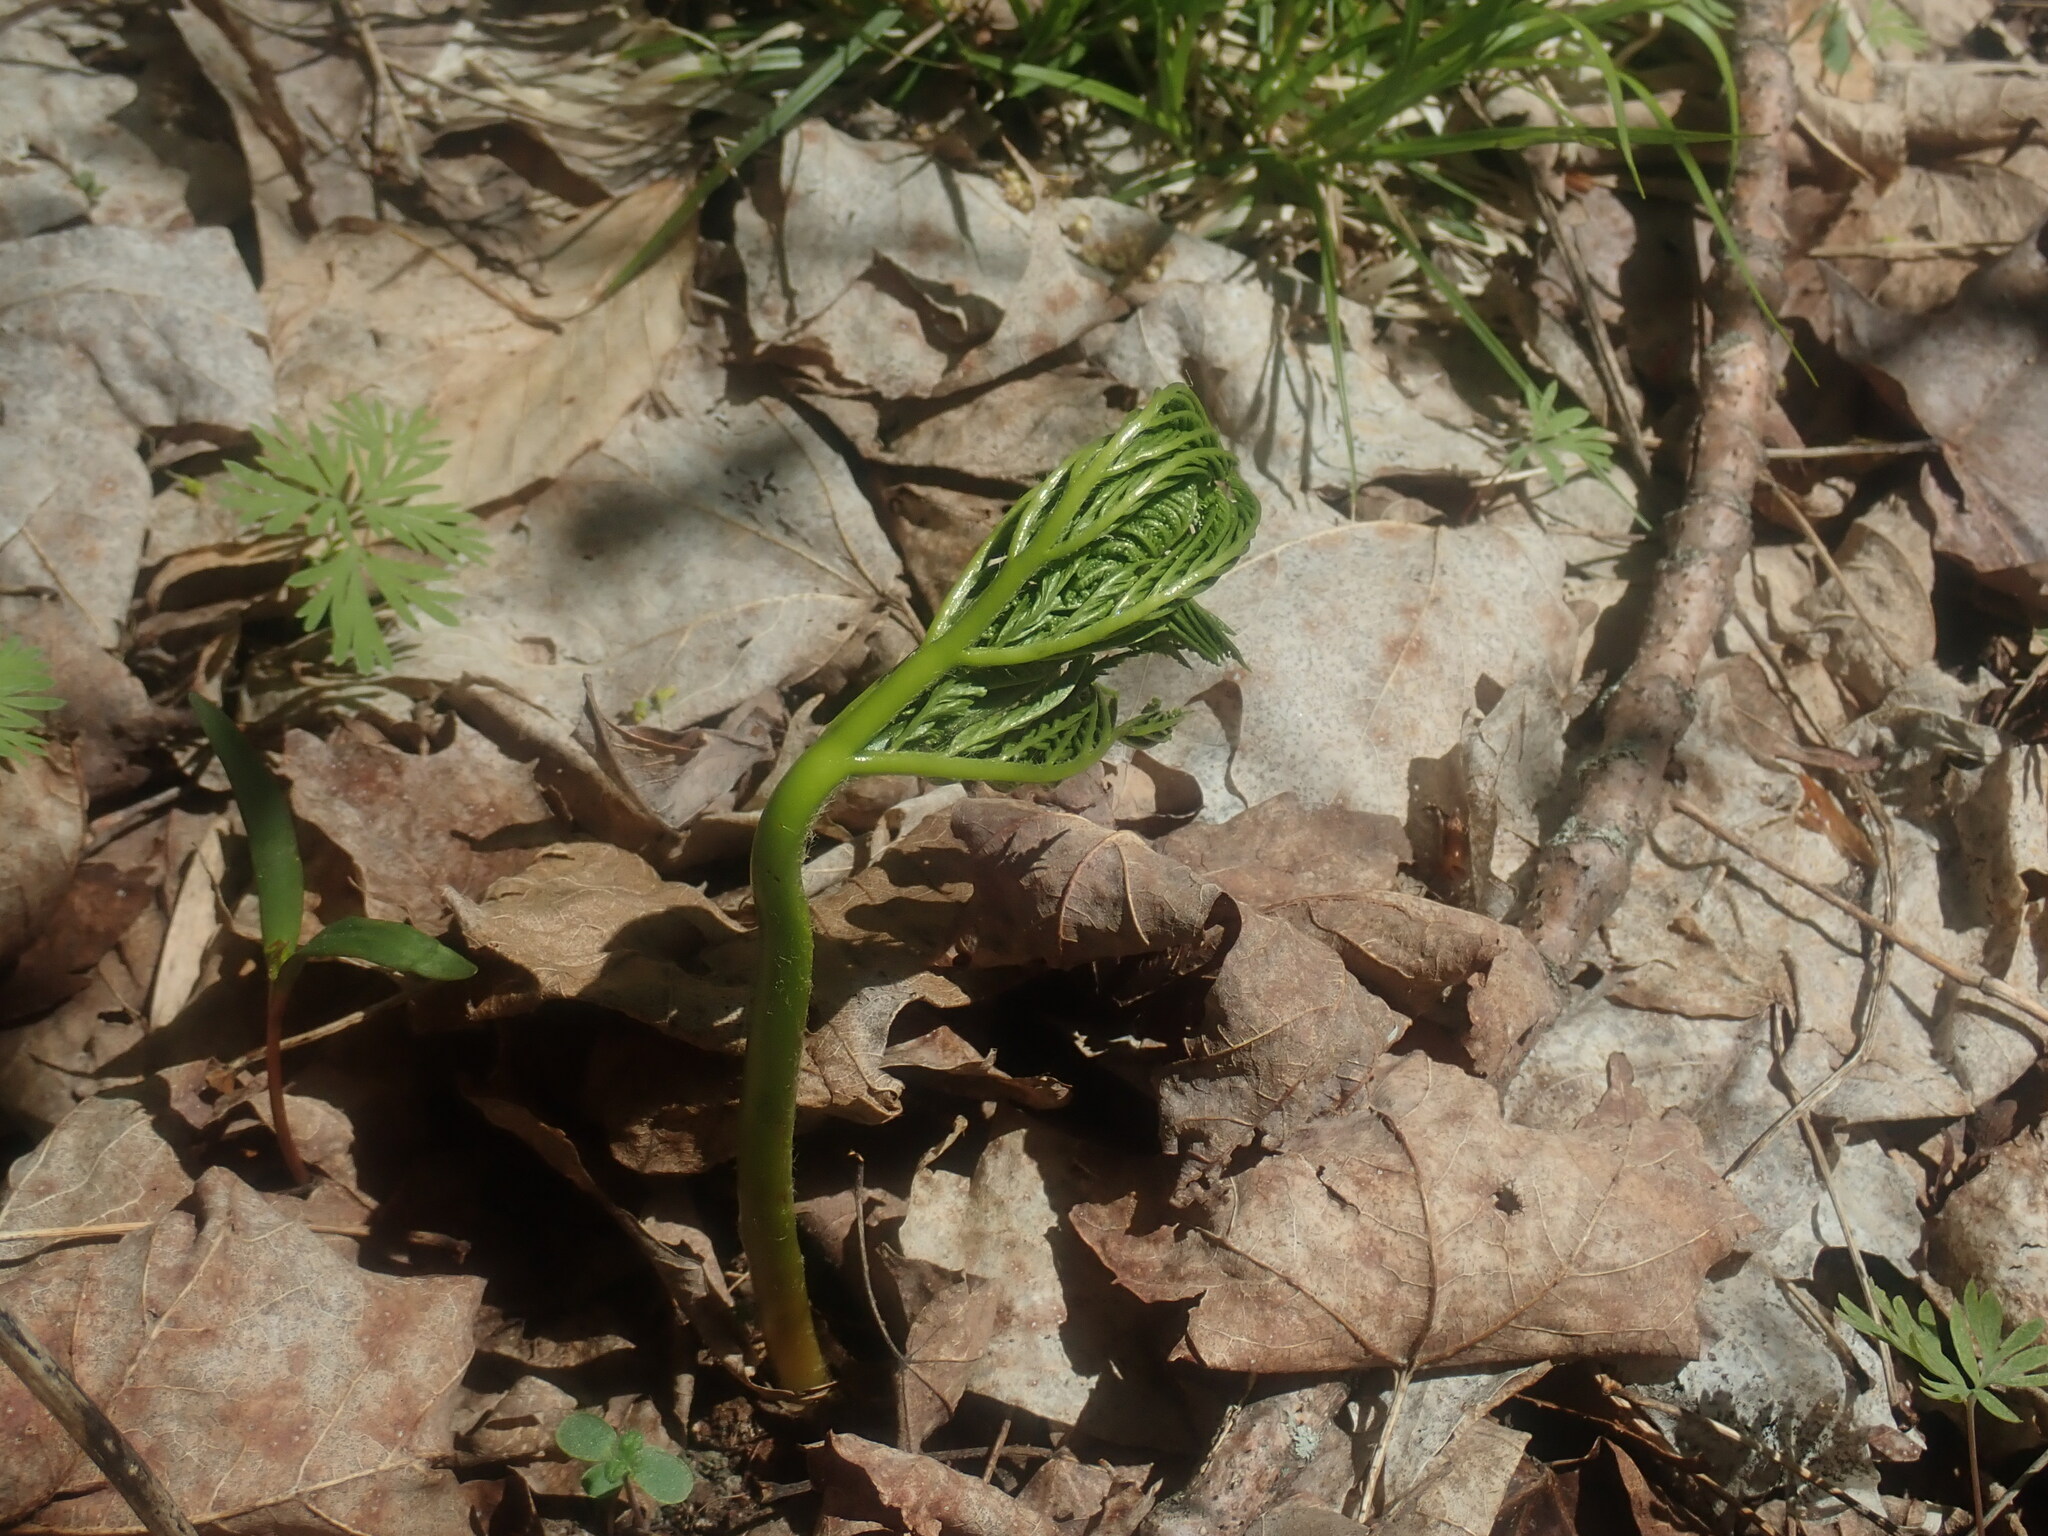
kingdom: Plantae
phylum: Tracheophyta
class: Polypodiopsida
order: Ophioglossales
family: Ophioglossaceae
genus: Botrypus
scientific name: Botrypus virginianus
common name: Common grapefern
